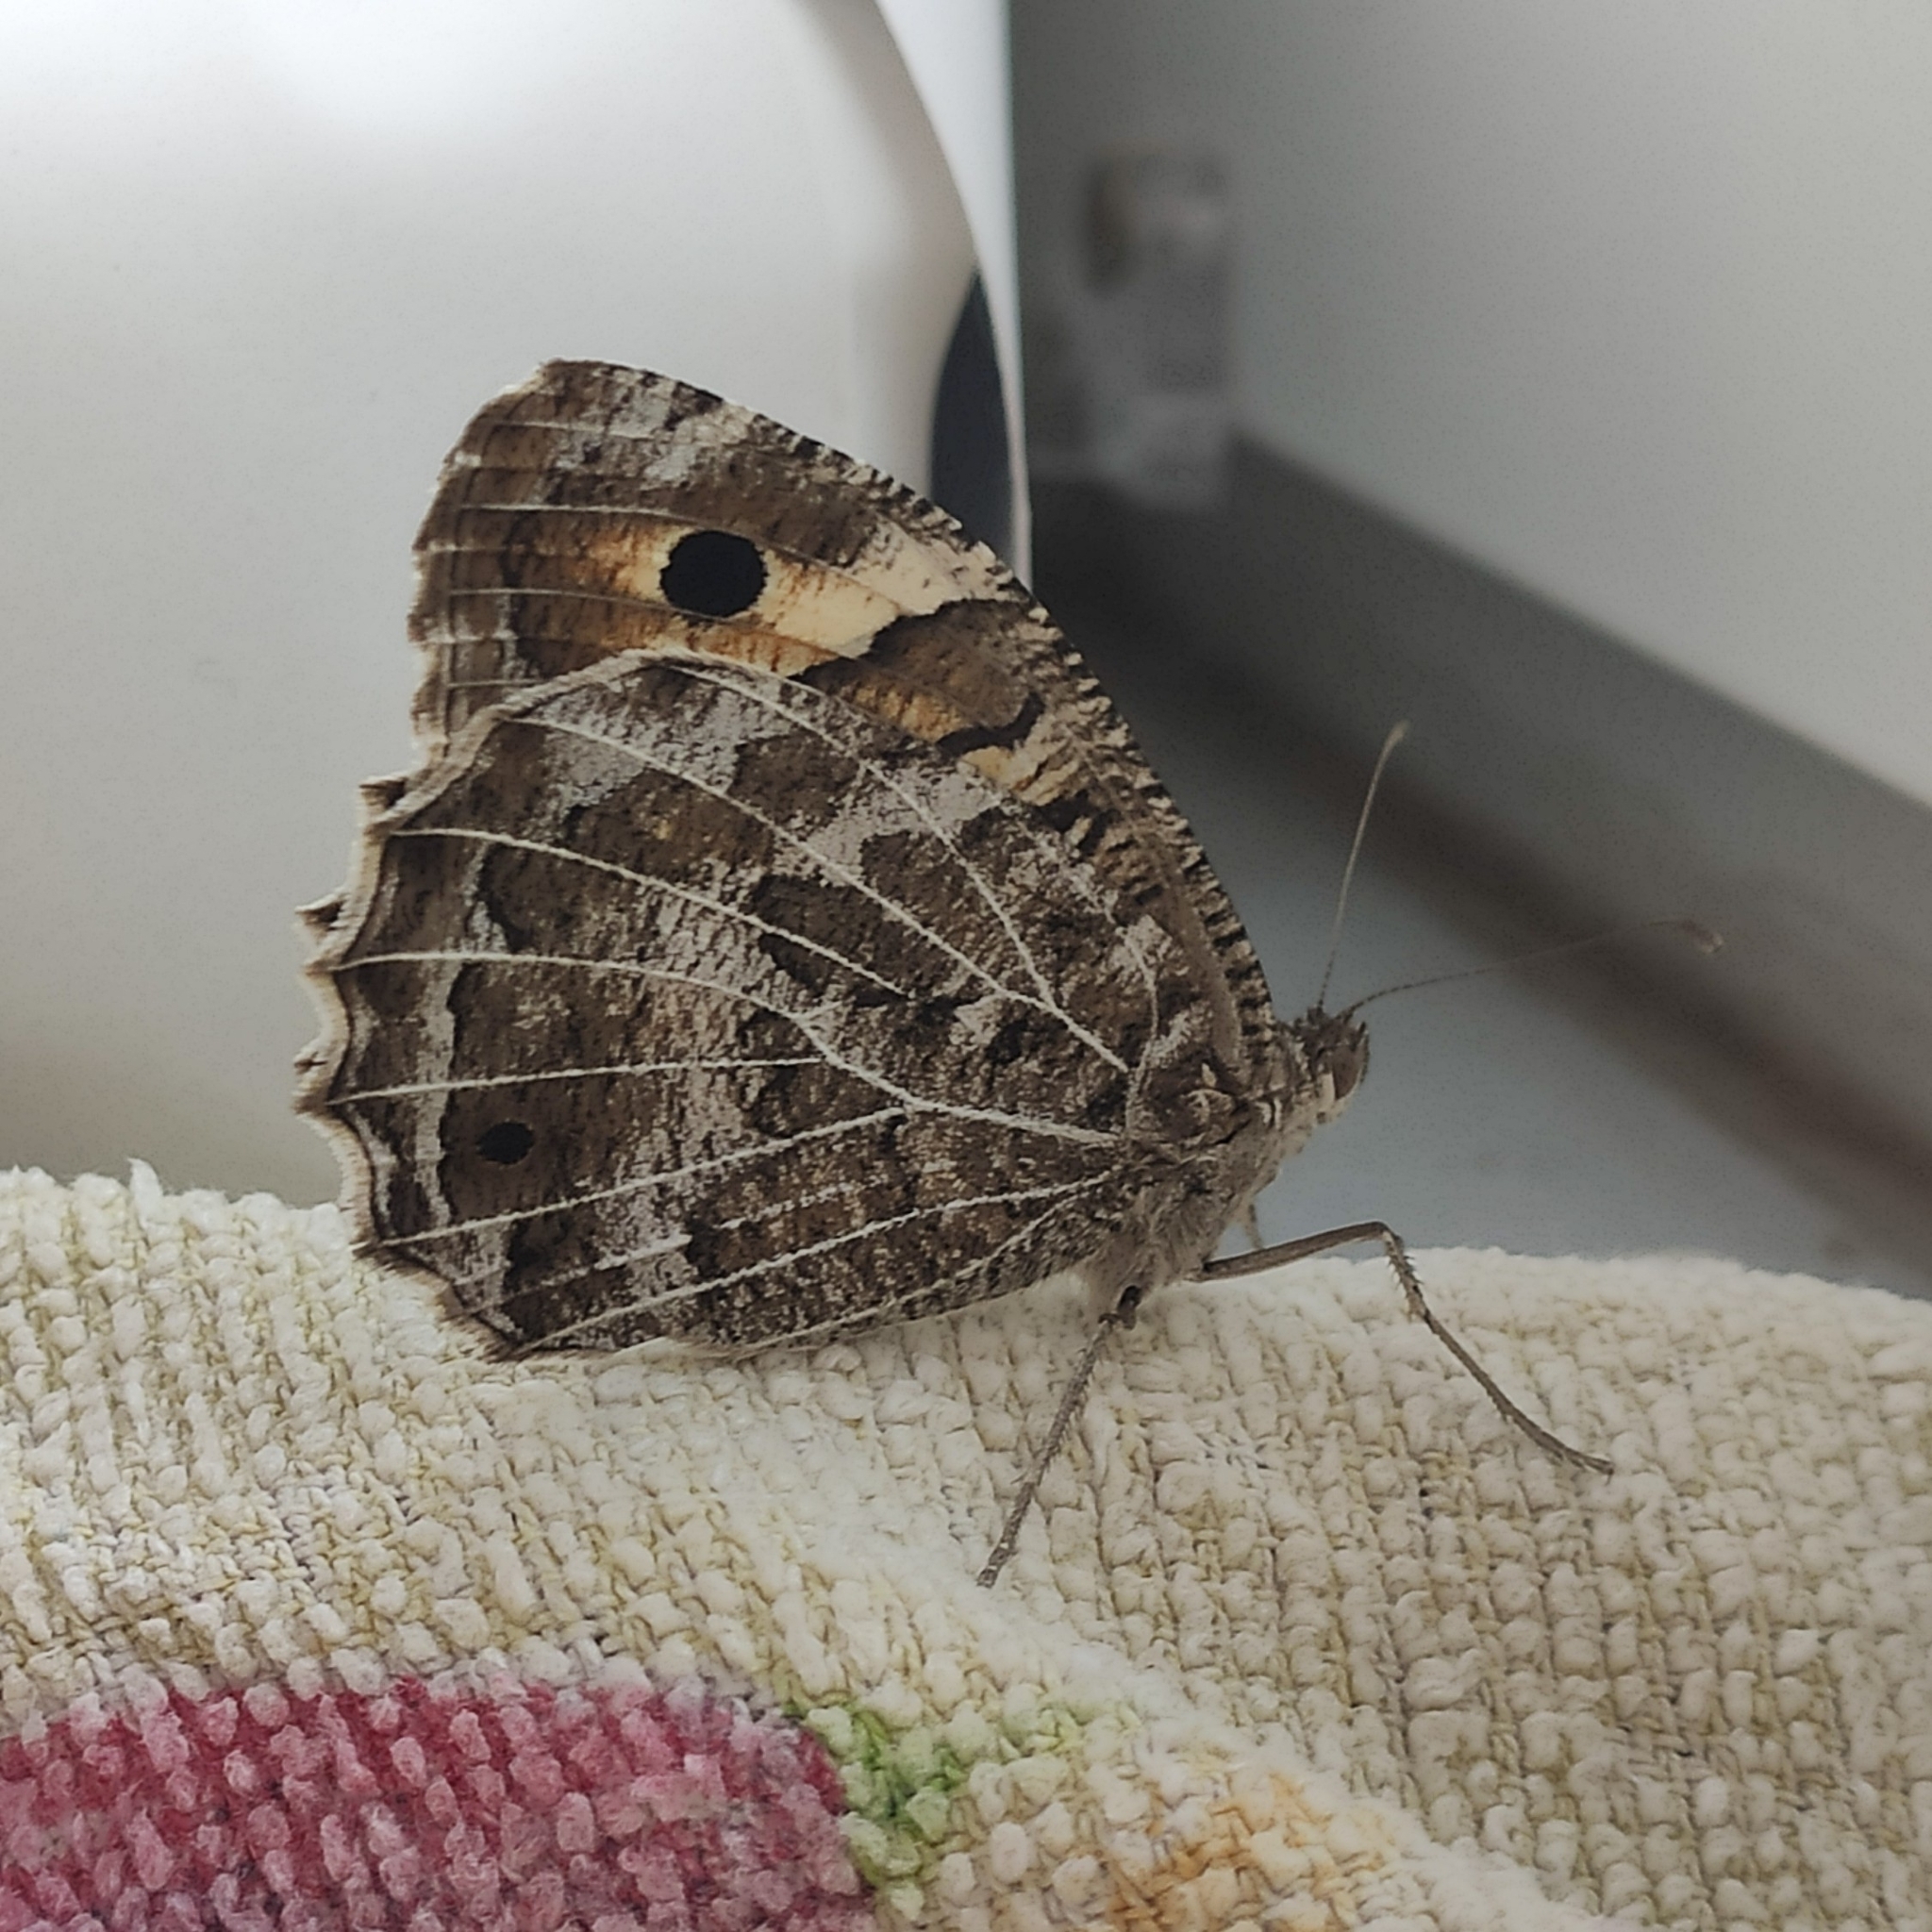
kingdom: Animalia
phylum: Arthropoda
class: Insecta
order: Lepidoptera
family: Nymphalidae
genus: Satyrus
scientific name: Satyrus Chazara persephone
